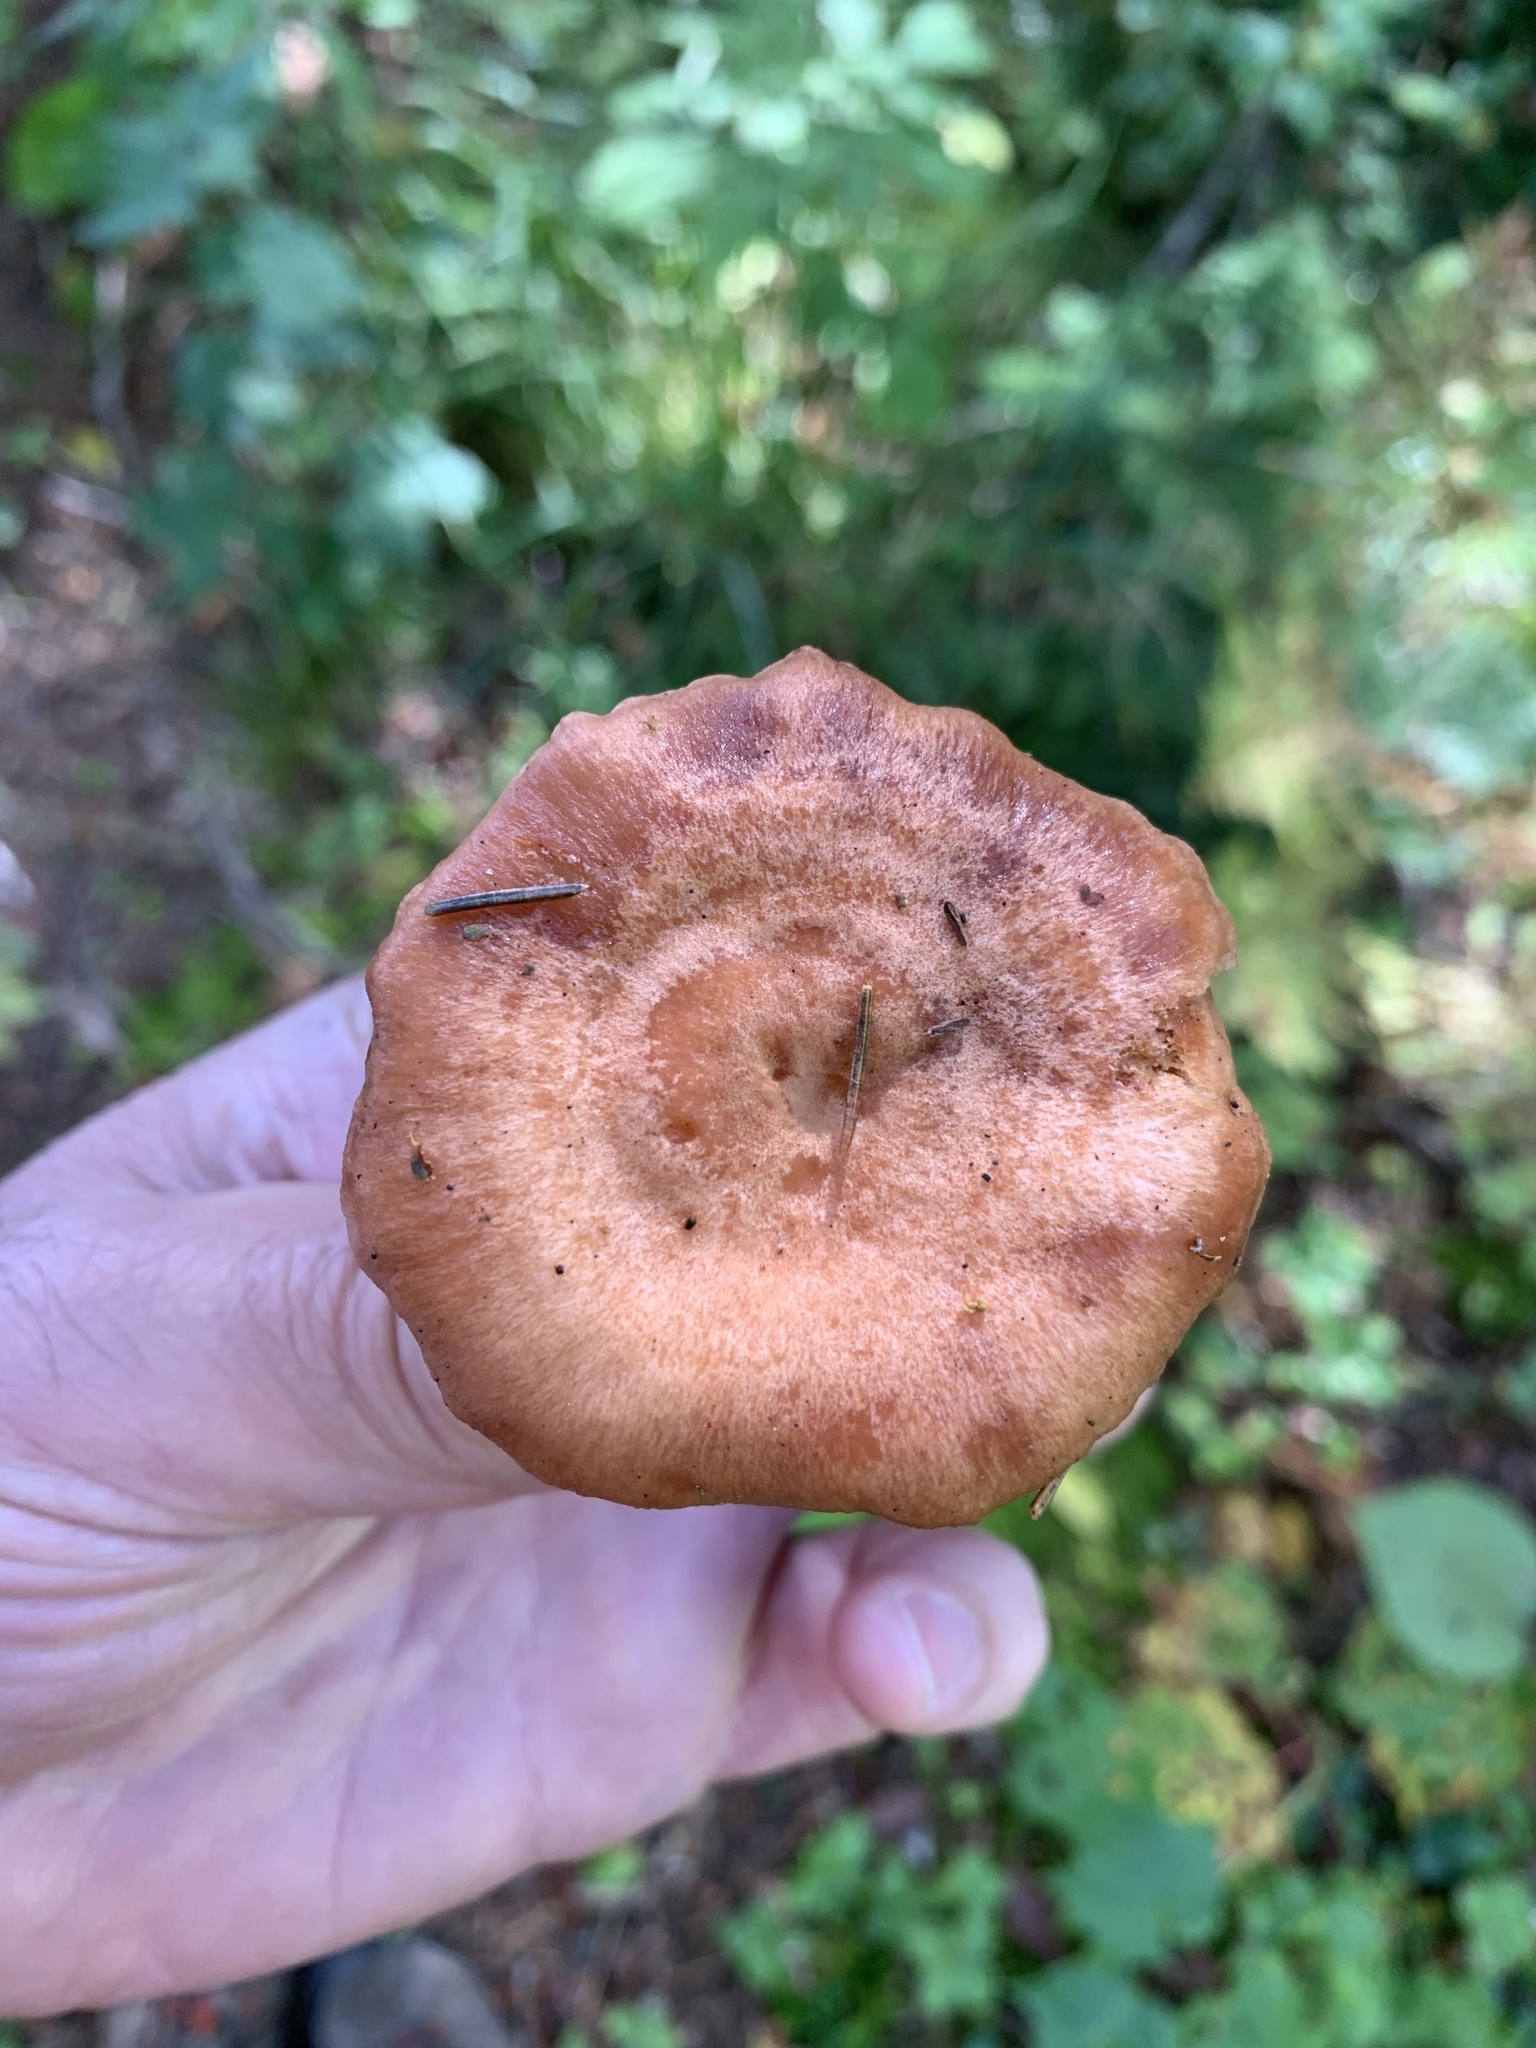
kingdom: Fungi
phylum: Basidiomycota
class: Agaricomycetes
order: Russulales
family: Russulaceae
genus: Lactarius
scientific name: Lactarius vinaceorufescens
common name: Yellow-latex milkcap
